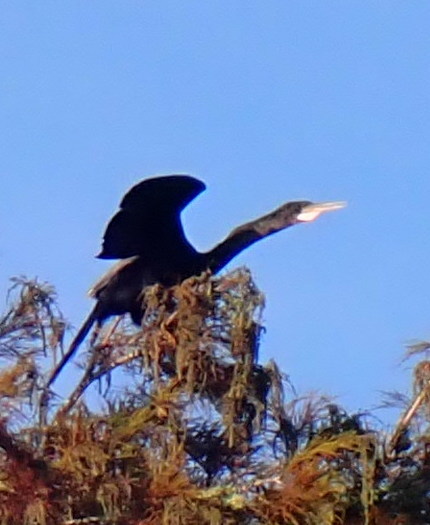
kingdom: Animalia
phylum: Chordata
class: Aves
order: Suliformes
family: Anhingidae
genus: Anhinga
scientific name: Anhinga anhinga
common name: Anhinga
